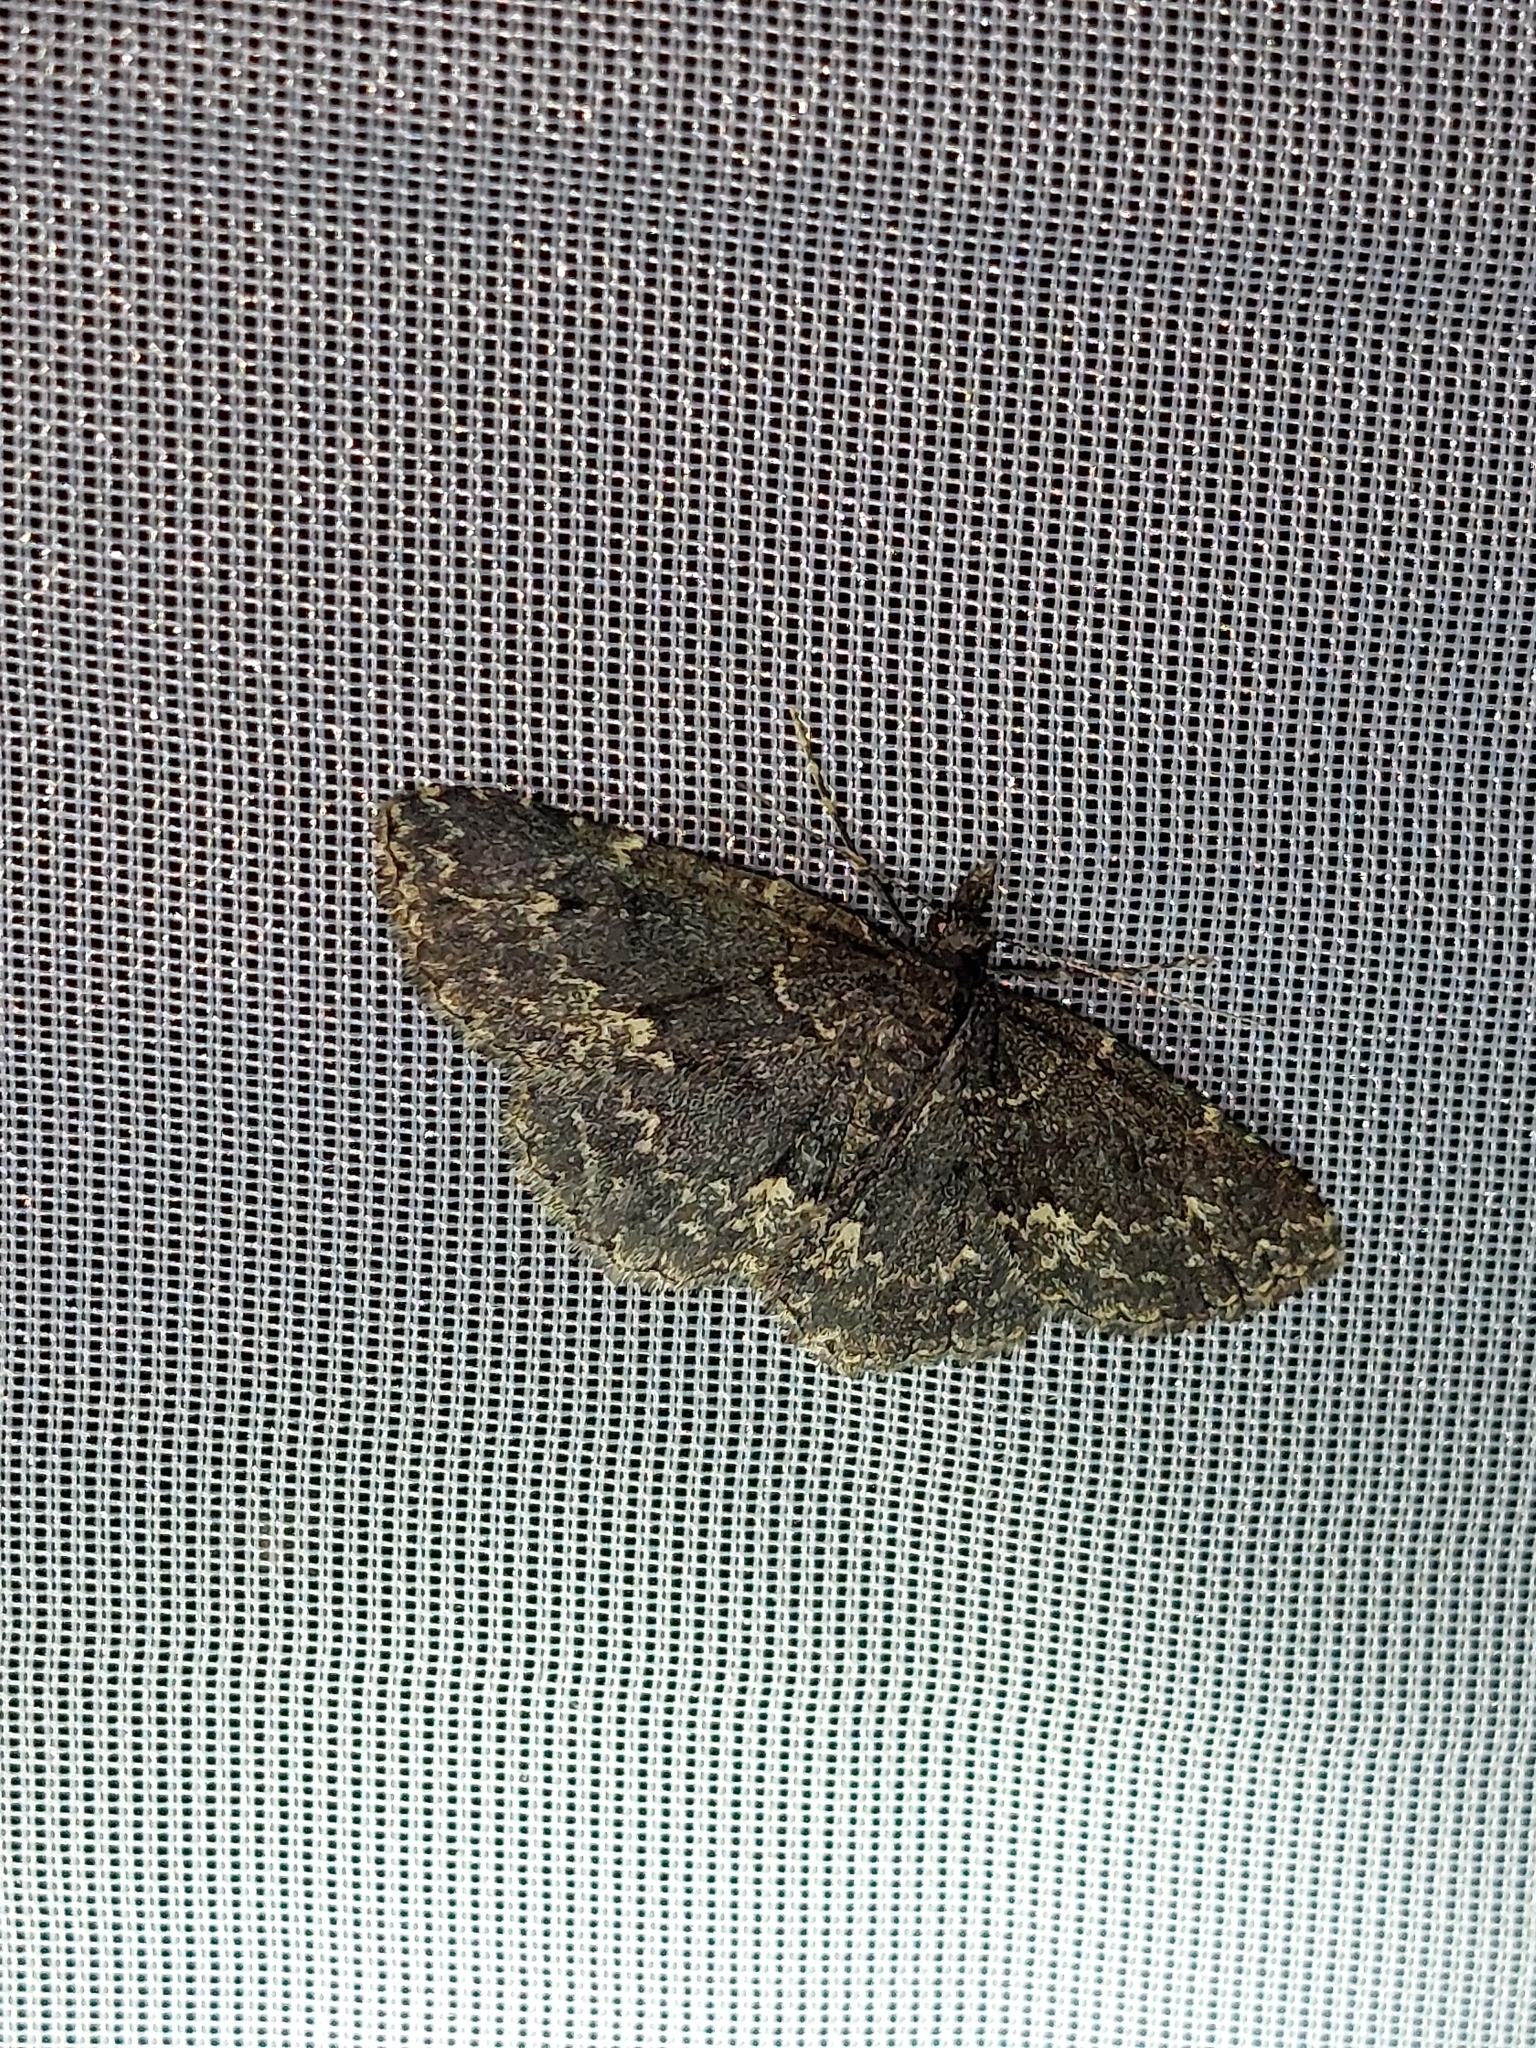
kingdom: Animalia
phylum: Arthropoda
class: Insecta
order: Lepidoptera
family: Erebidae
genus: Parascotia
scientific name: Parascotia fuliginaria
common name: Waved black
